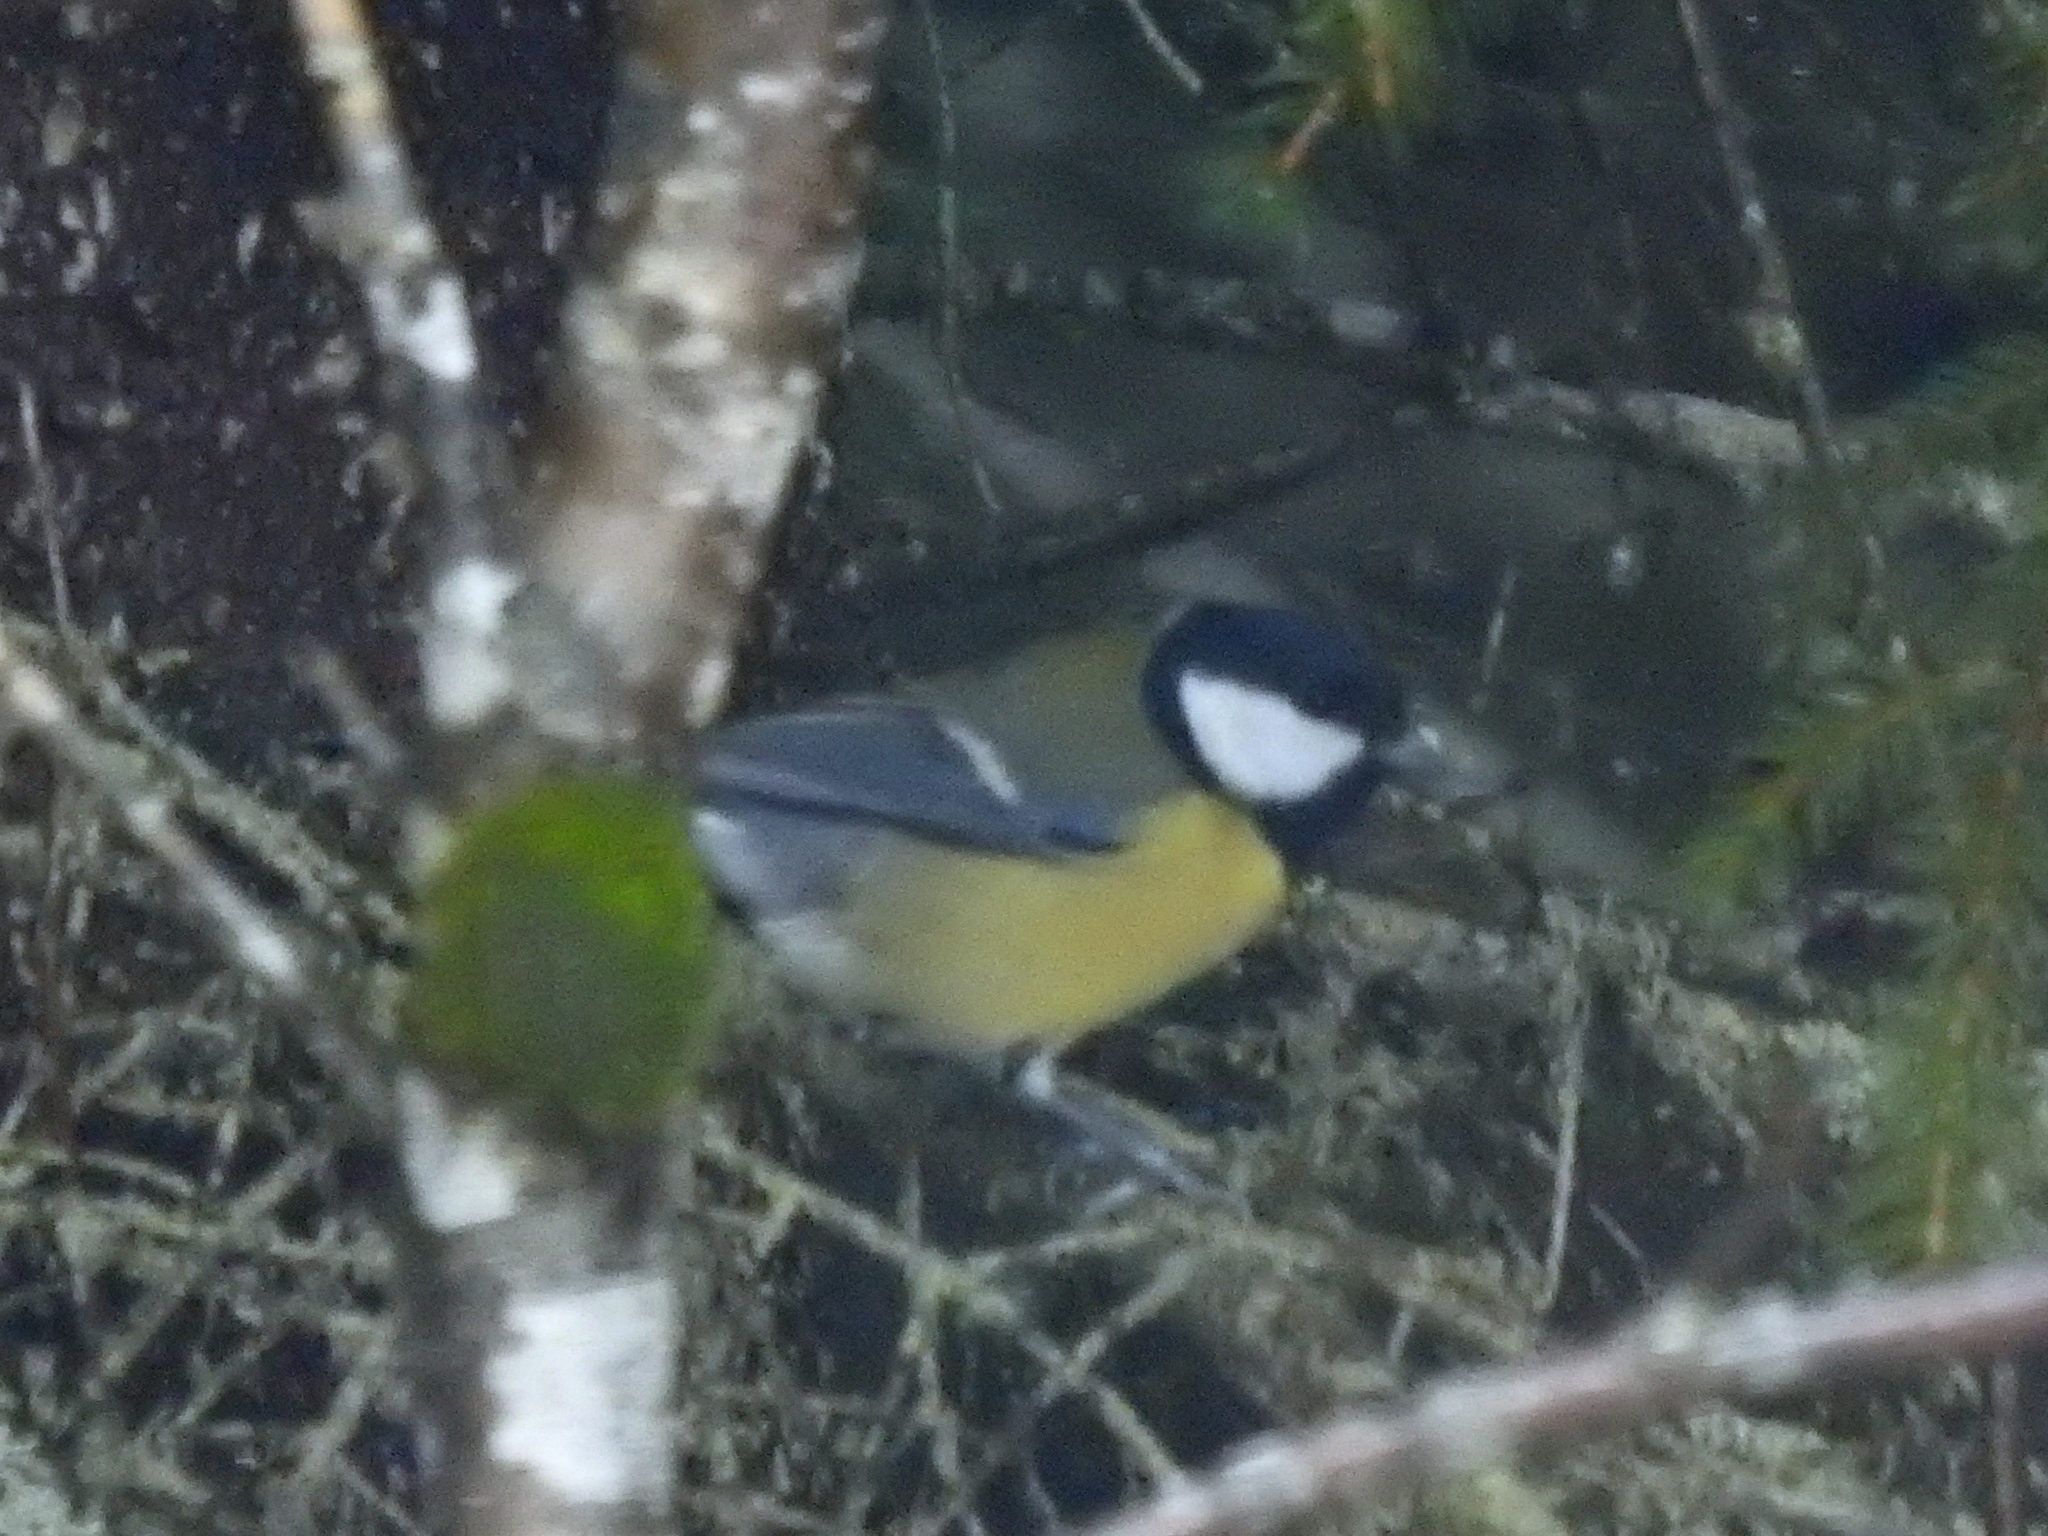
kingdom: Animalia
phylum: Chordata
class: Aves
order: Passeriformes
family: Paridae
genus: Parus
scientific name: Parus major
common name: Great tit
